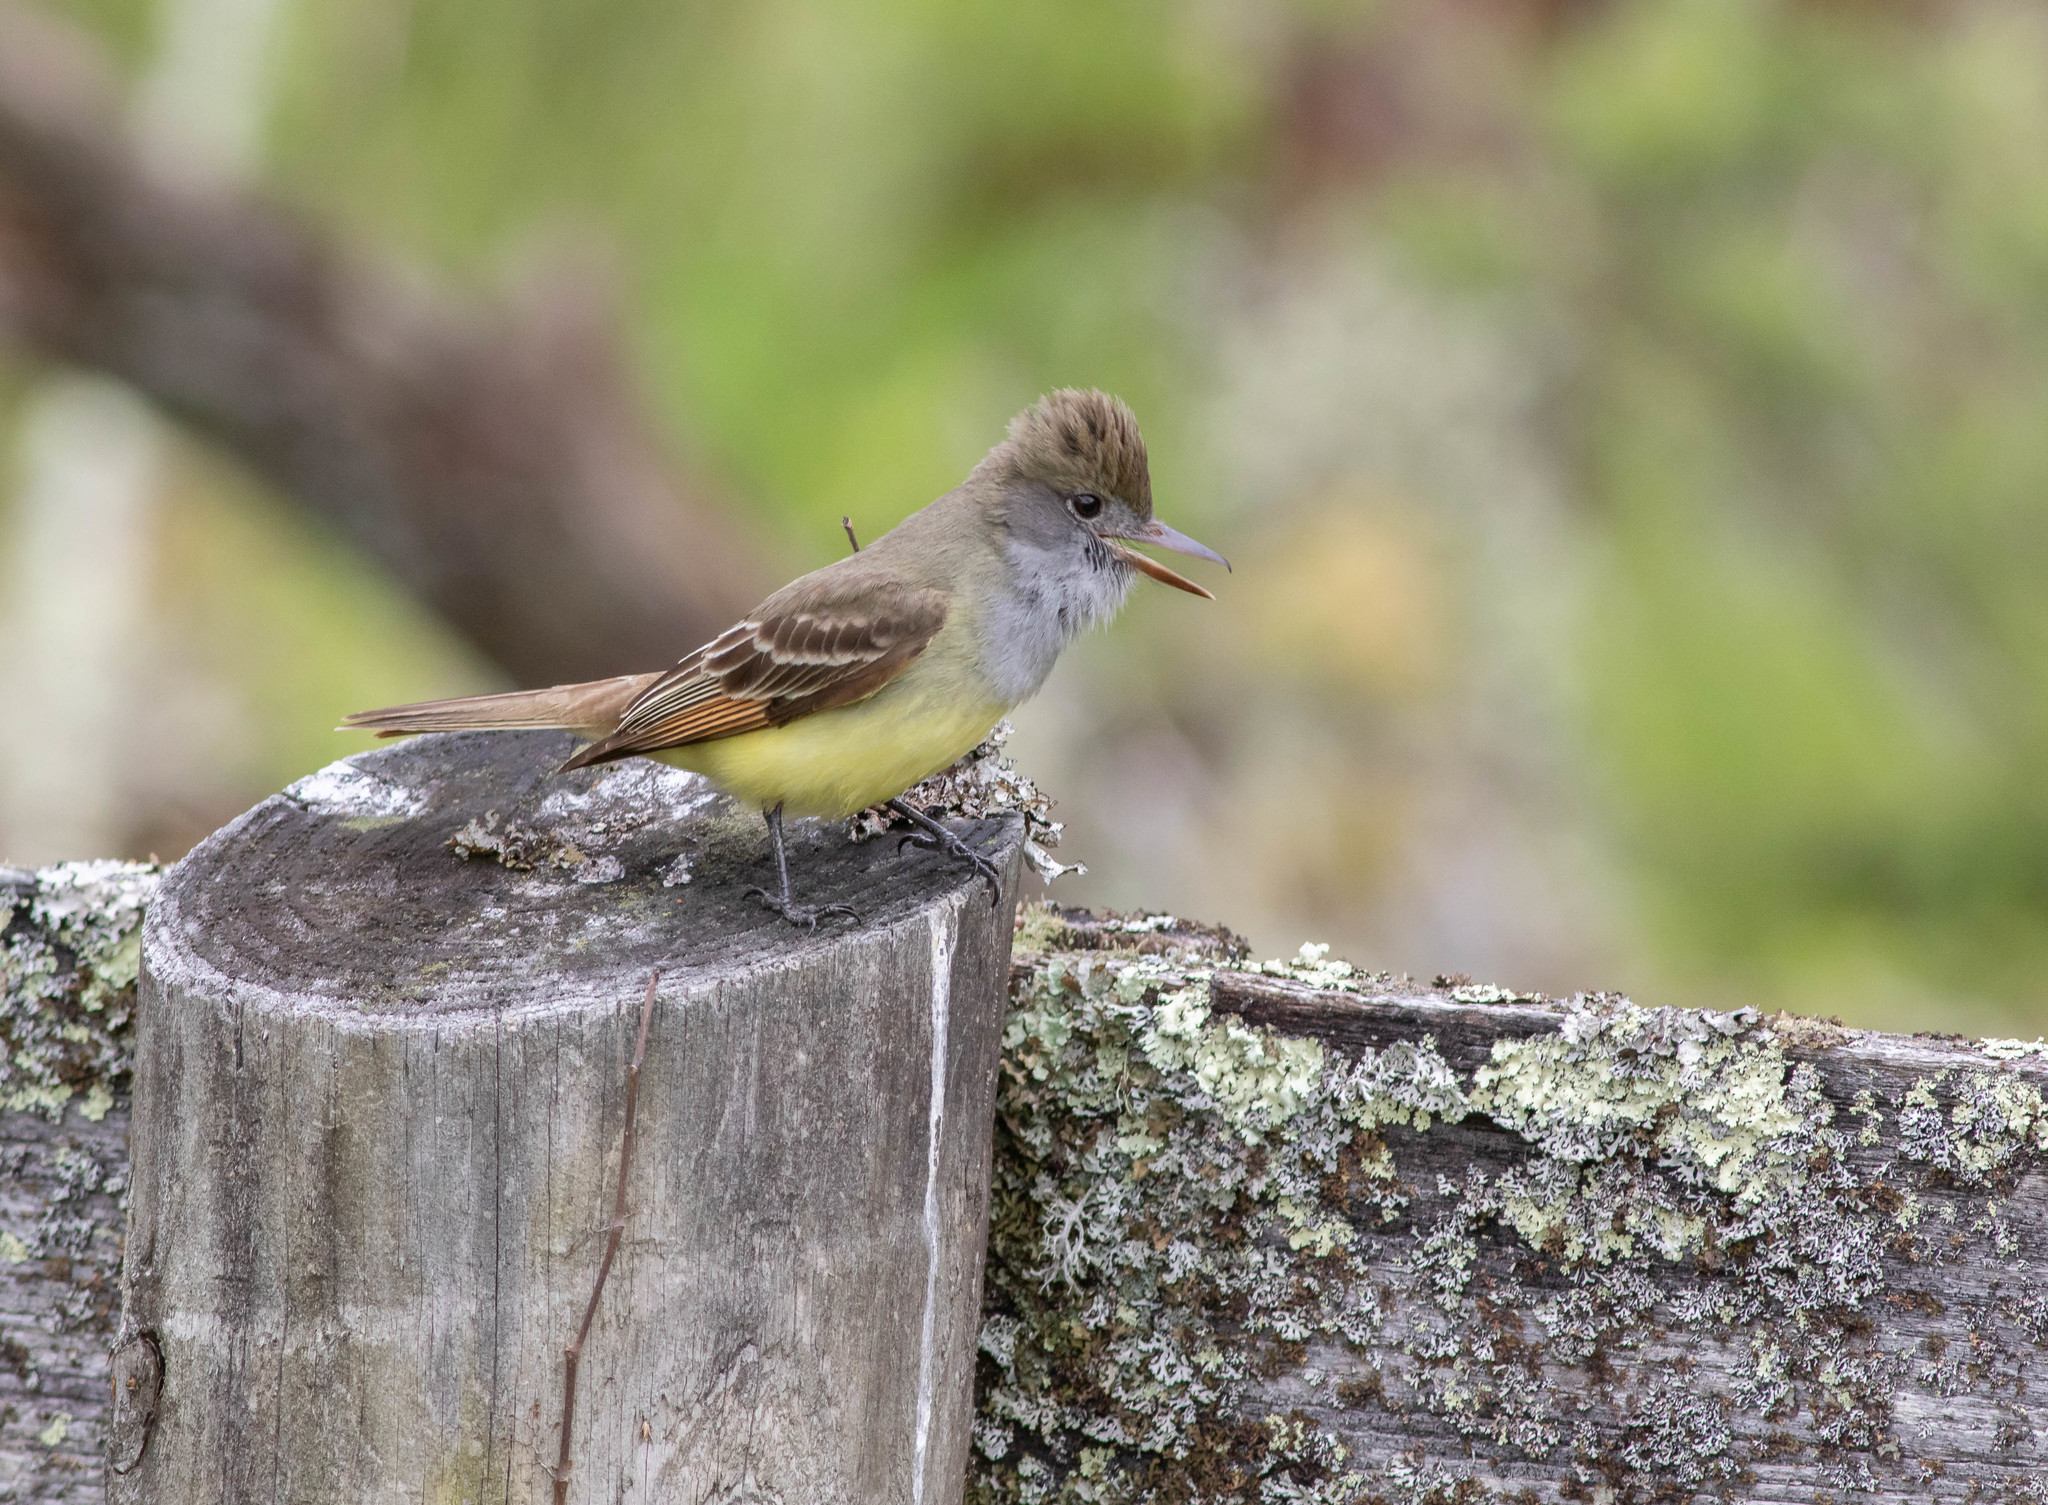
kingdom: Animalia
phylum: Chordata
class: Aves
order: Passeriformes
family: Tyrannidae
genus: Myiarchus
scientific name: Myiarchus crinitus
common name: Great crested flycatcher
